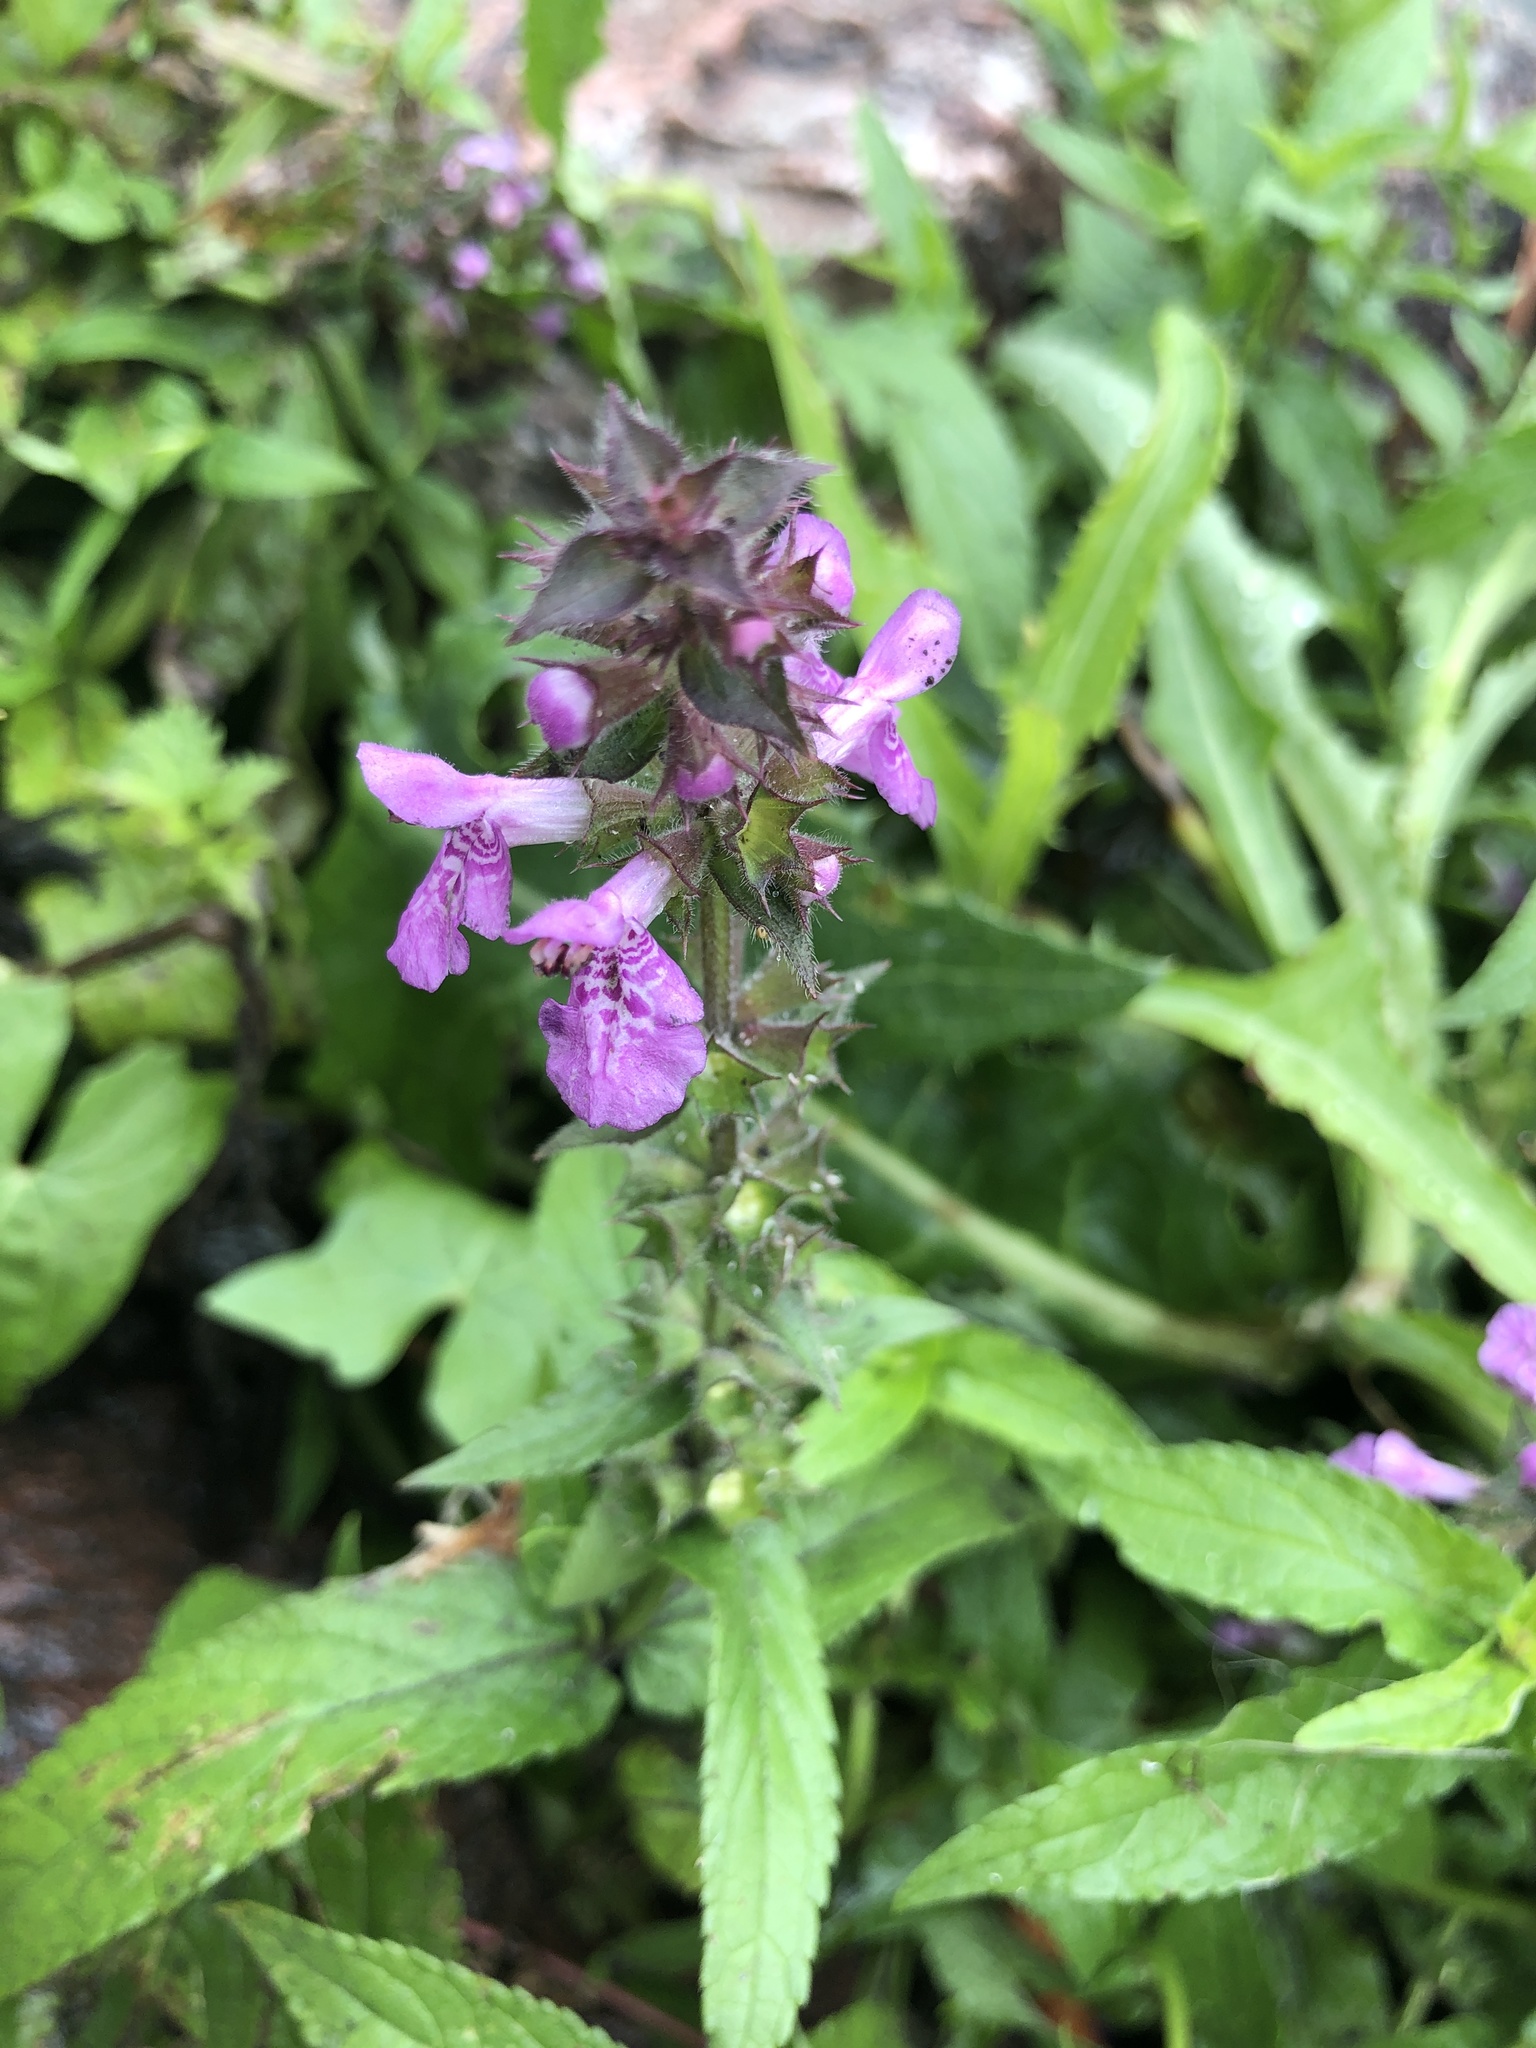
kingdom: Plantae
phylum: Tracheophyta
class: Magnoliopsida
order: Lamiales
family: Lamiaceae
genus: Stachys
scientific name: Stachys palustris
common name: Marsh woundwort
